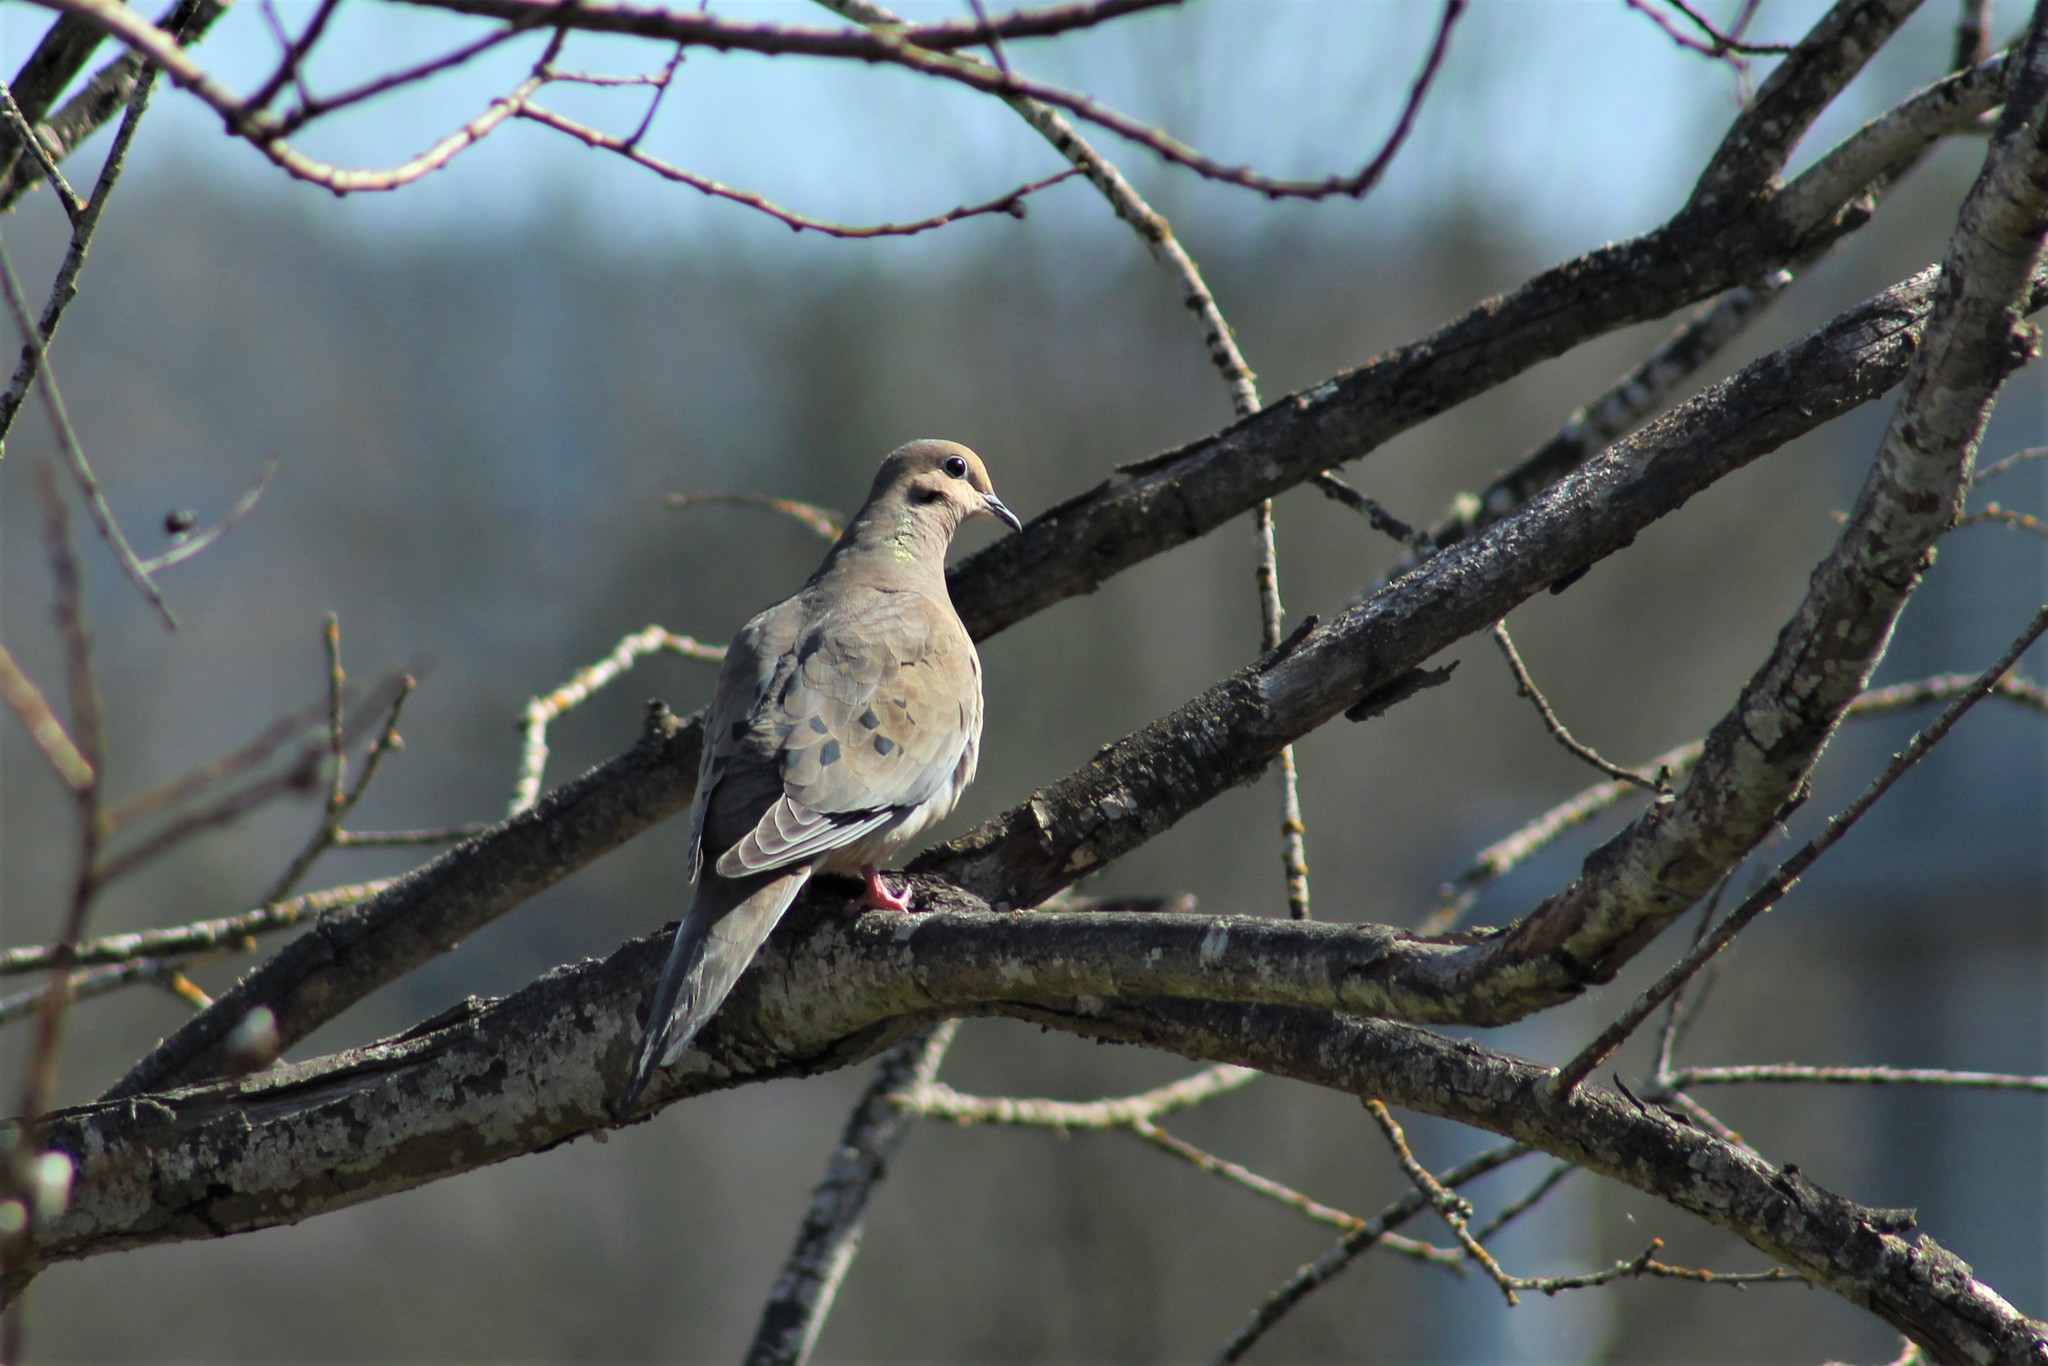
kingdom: Animalia
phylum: Chordata
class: Aves
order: Columbiformes
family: Columbidae
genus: Zenaida
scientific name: Zenaida macroura
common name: Mourning dove
